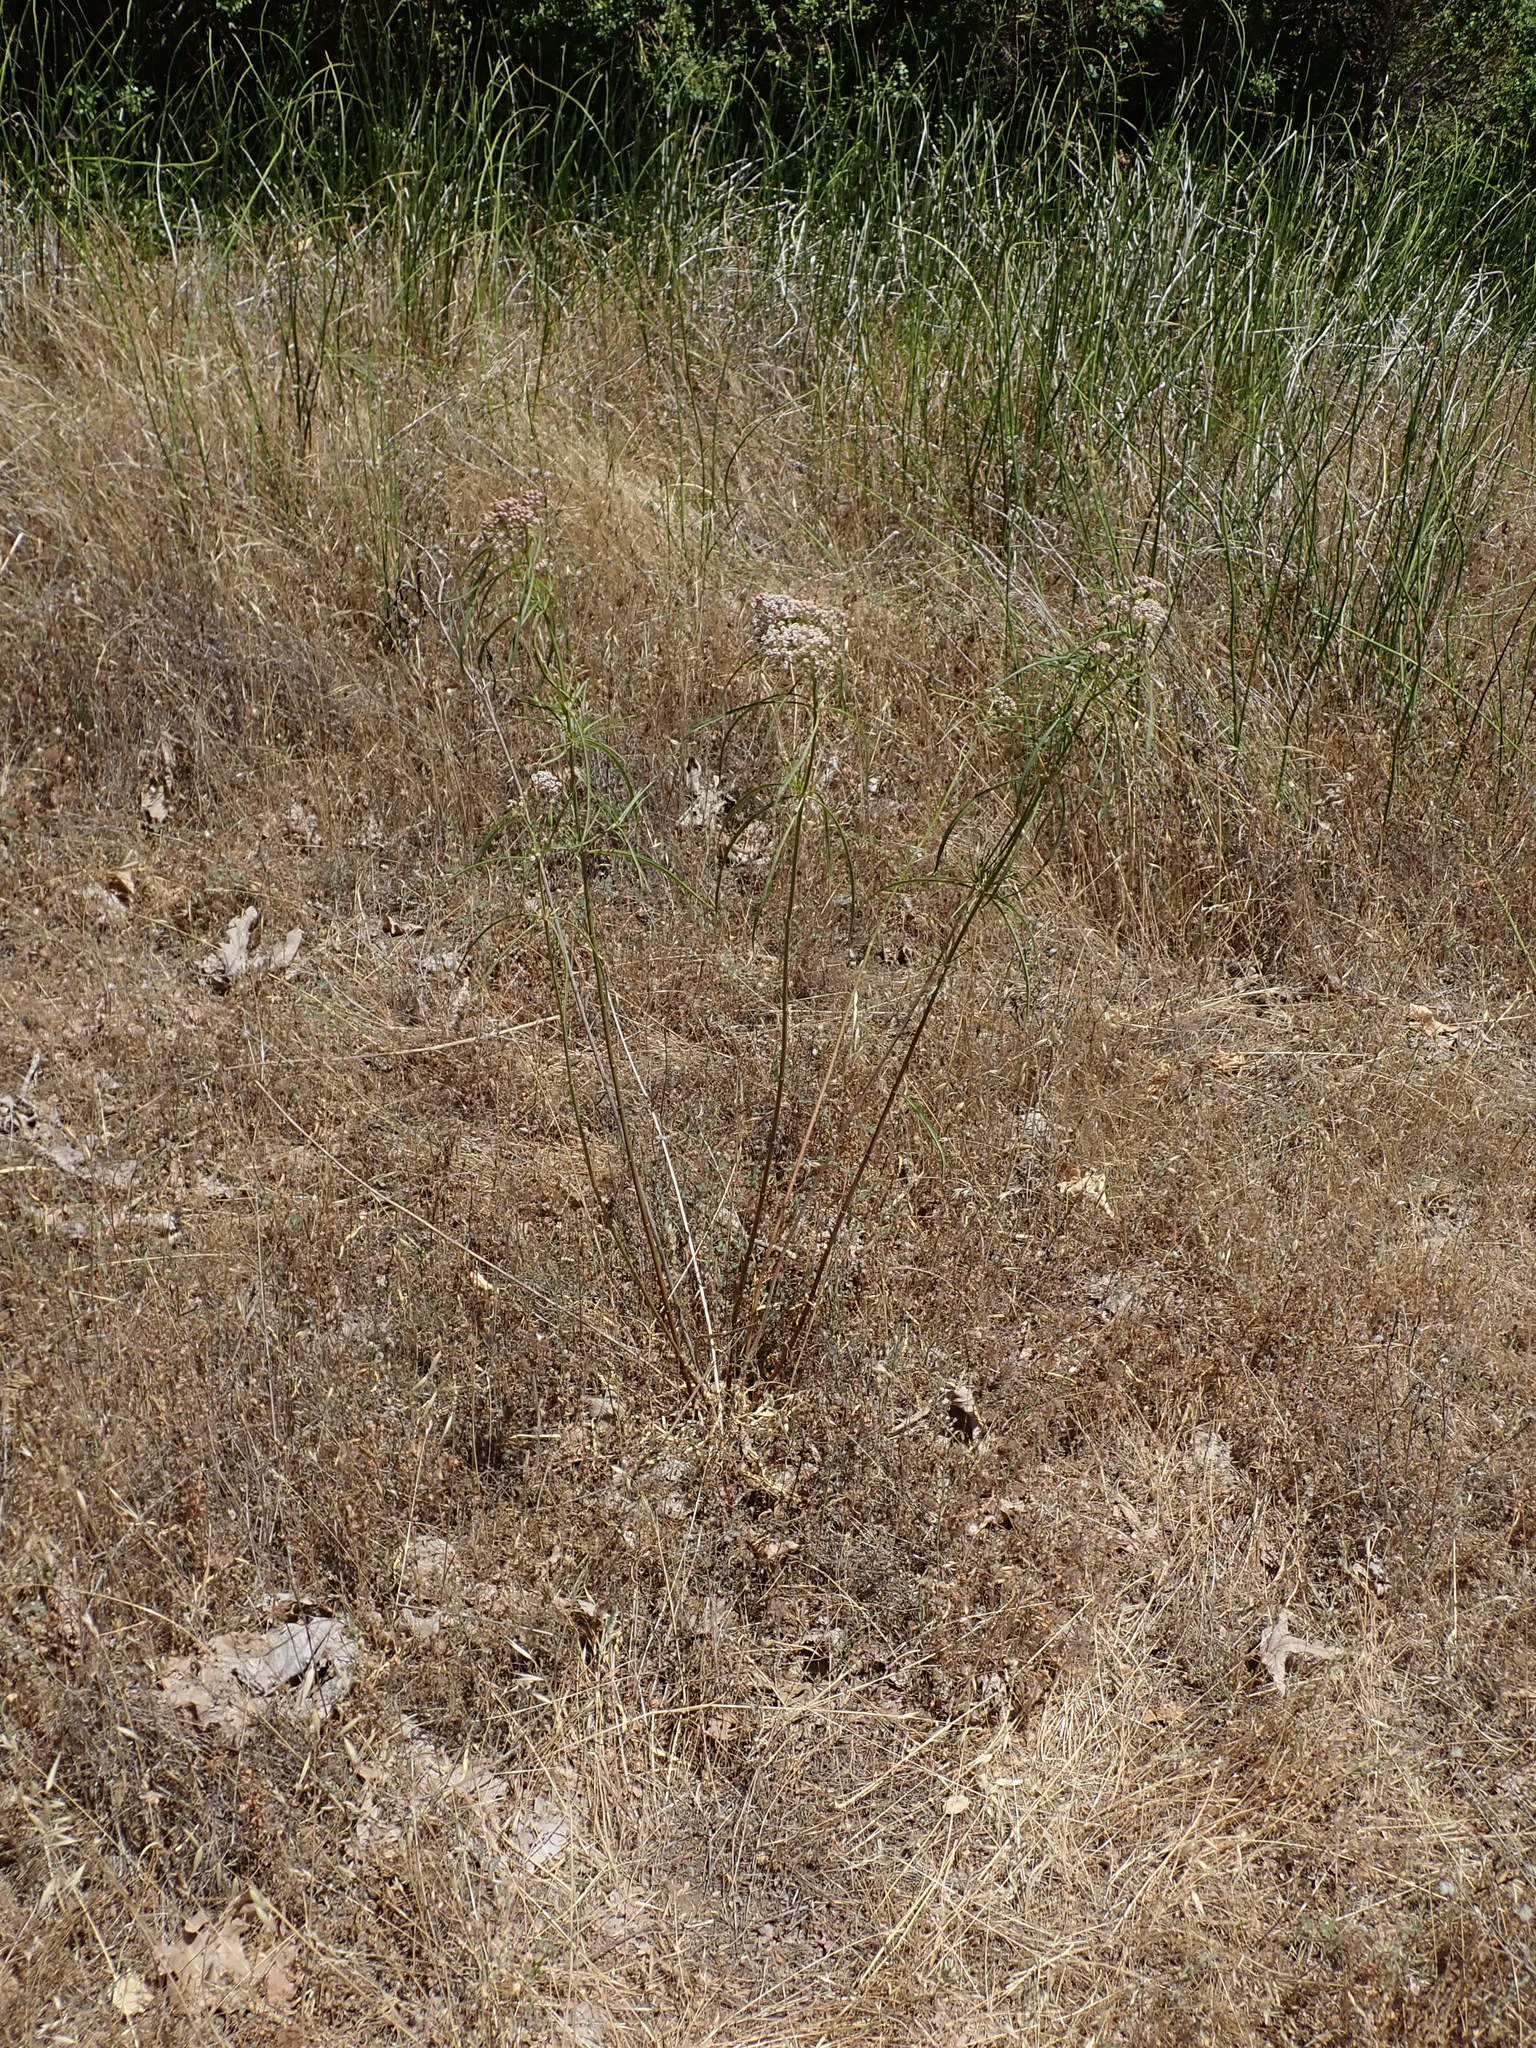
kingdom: Plantae
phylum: Tracheophyta
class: Magnoliopsida
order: Gentianales
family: Apocynaceae
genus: Asclepias
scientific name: Asclepias fascicularis
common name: Mexican milkweed
